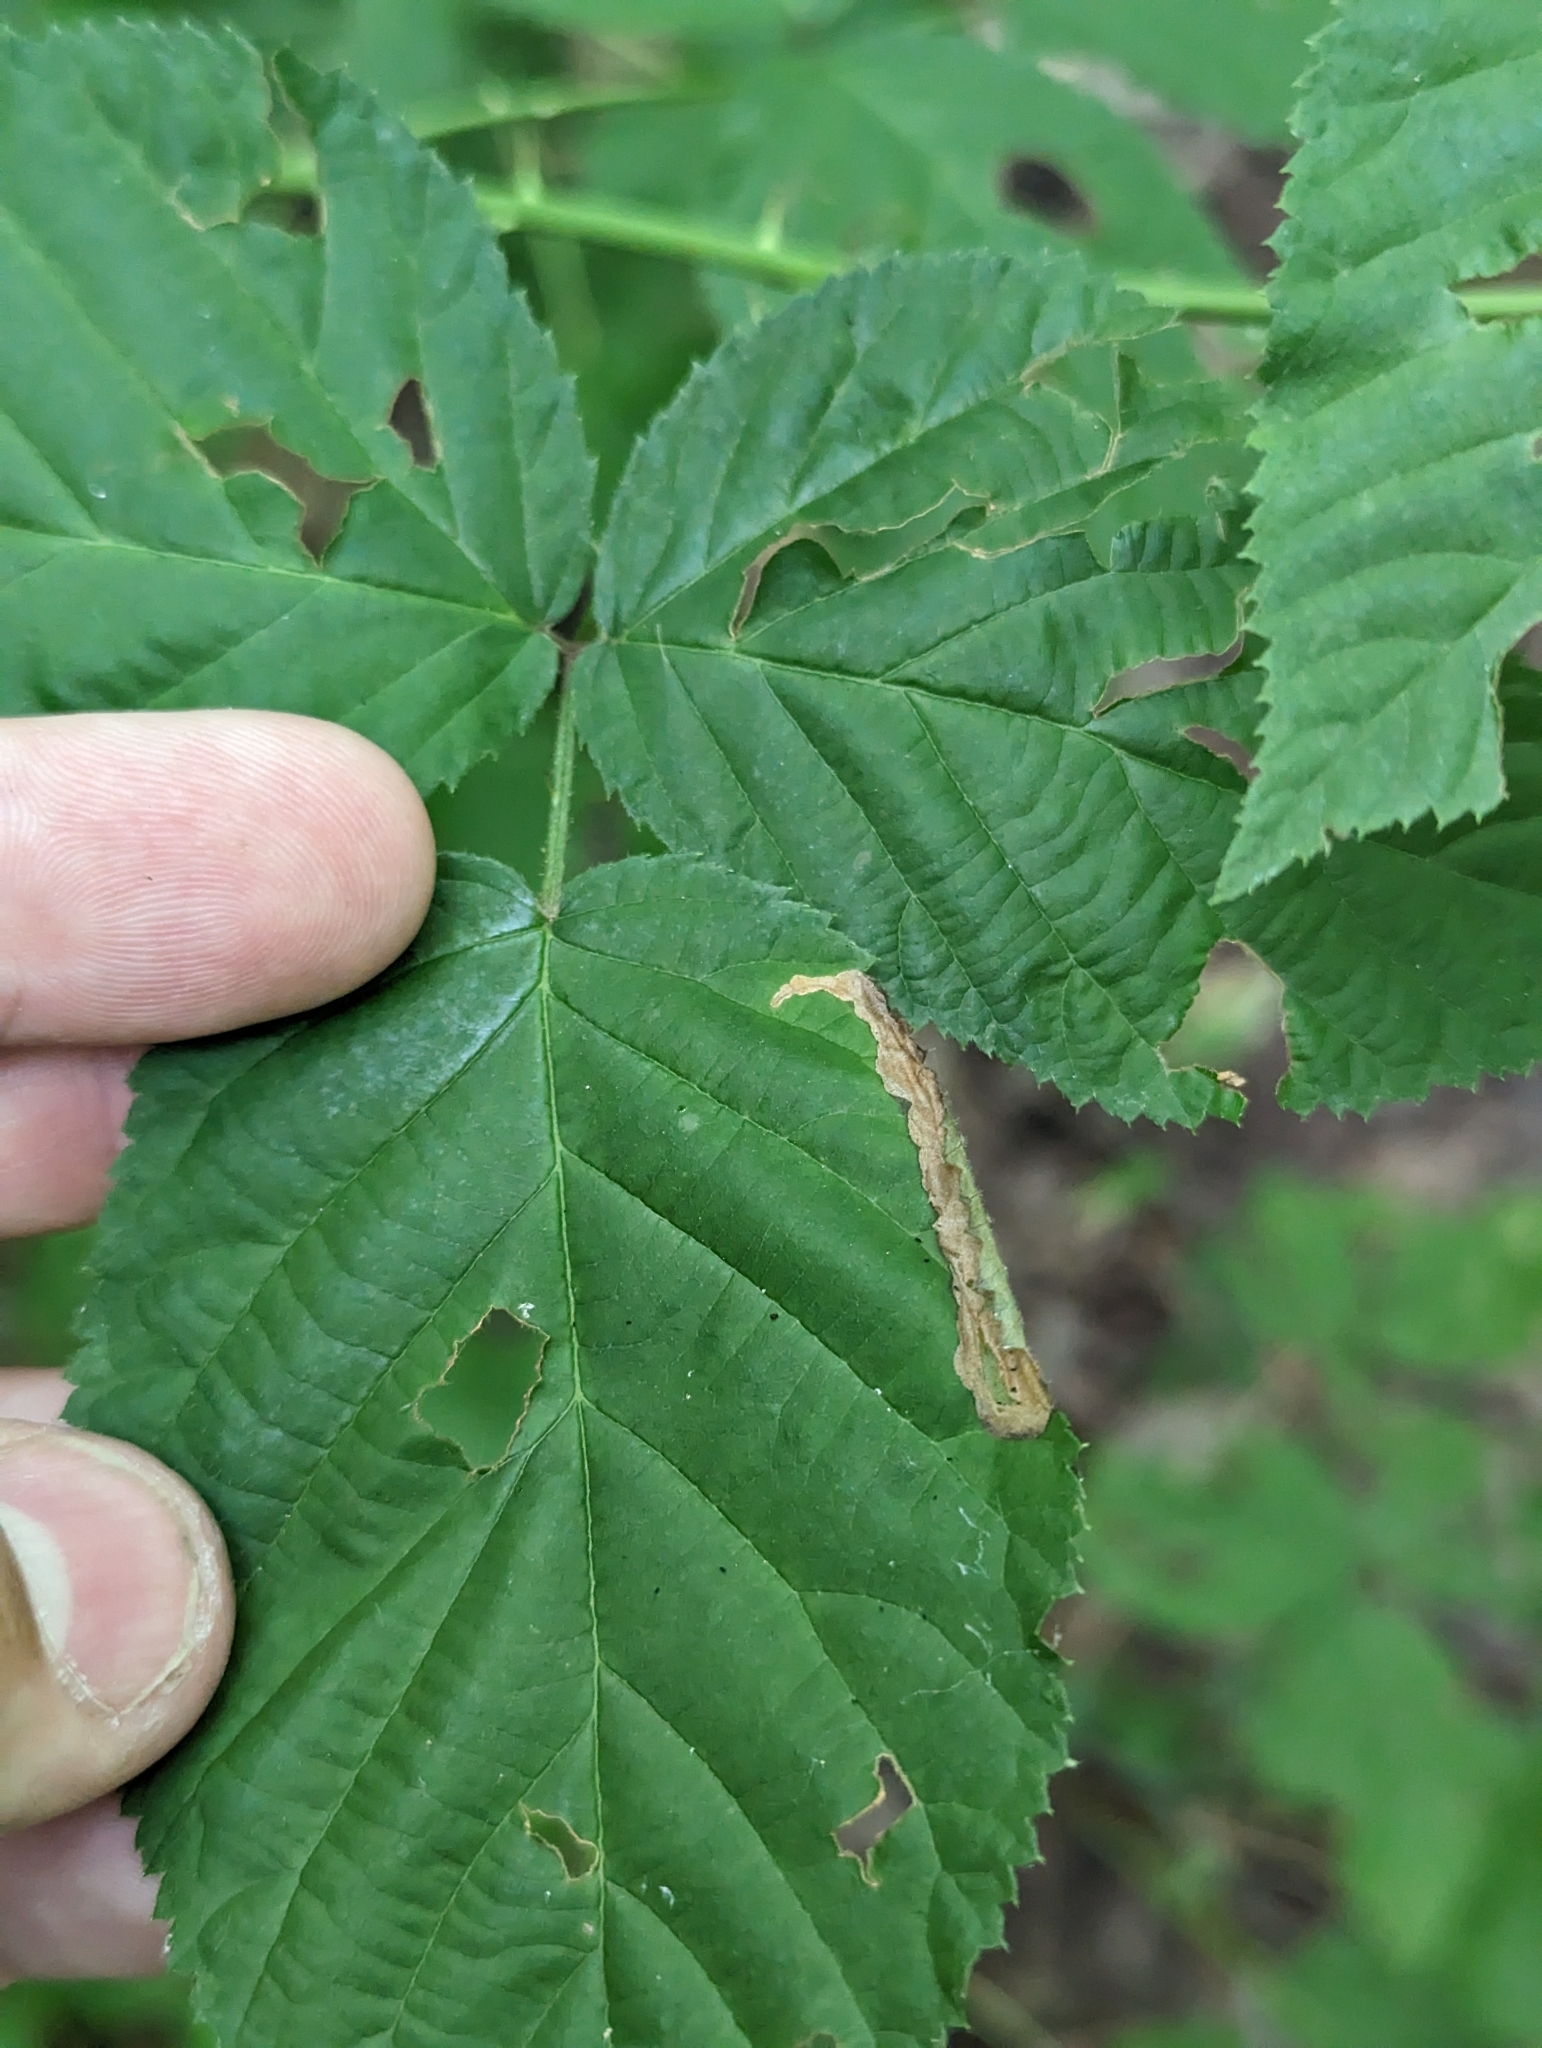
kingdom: Animalia
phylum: Arthropoda
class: Insecta
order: Lepidoptera
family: Tischeriidae
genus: Coptotriche
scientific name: Coptotriche aenea
